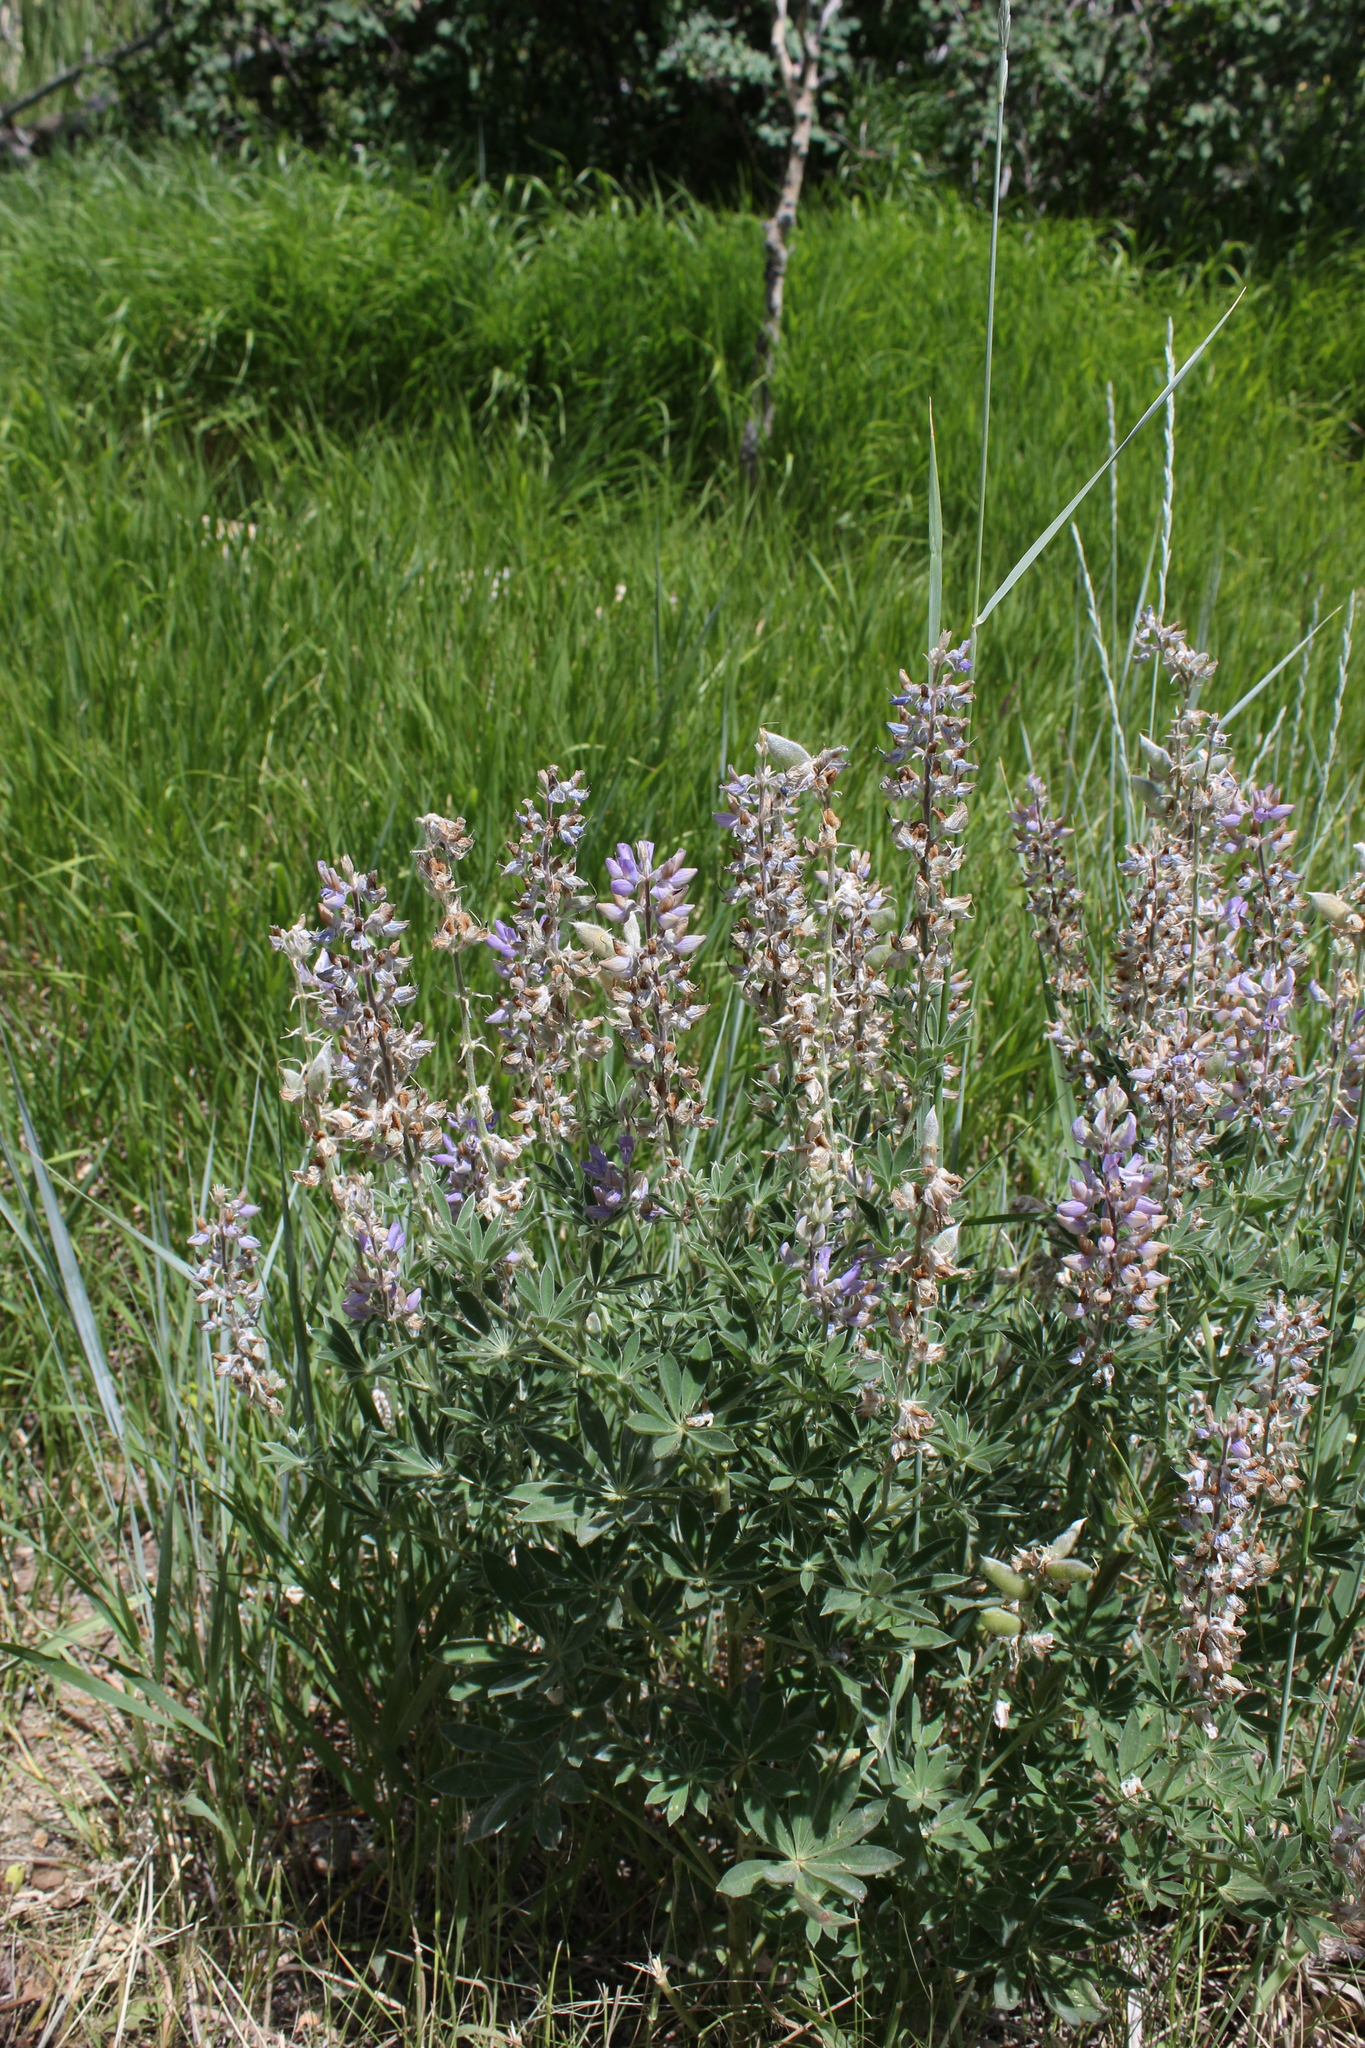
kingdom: Plantae
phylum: Tracheophyta
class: Magnoliopsida
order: Fabales
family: Fabaceae
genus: Lupinus
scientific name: Lupinus argenteus
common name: Silvery lupine
